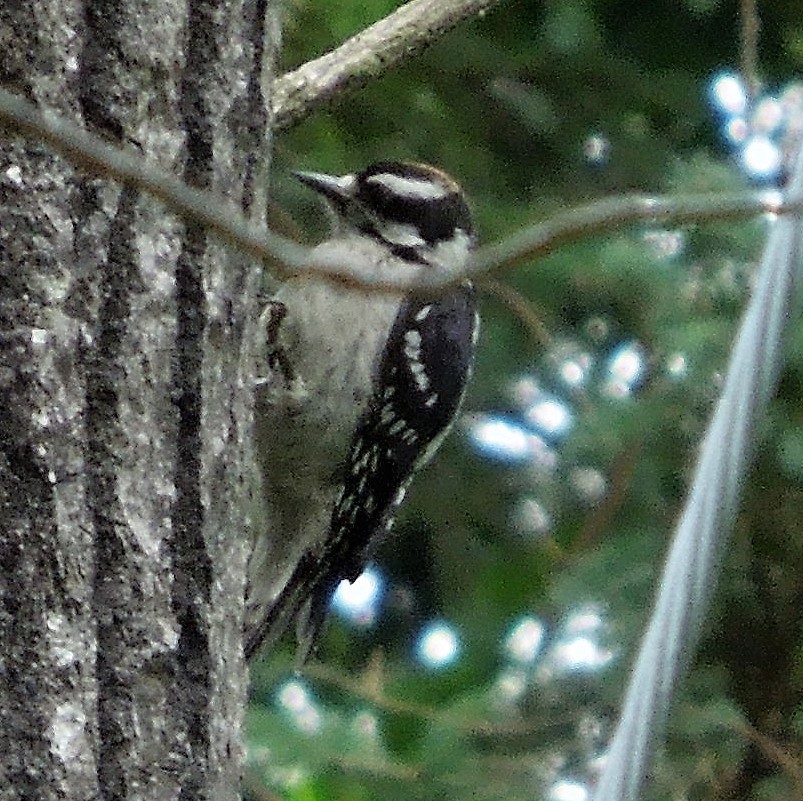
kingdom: Animalia
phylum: Chordata
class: Aves
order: Piciformes
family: Picidae
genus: Dryobates
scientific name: Dryobates pubescens
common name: Downy woodpecker
